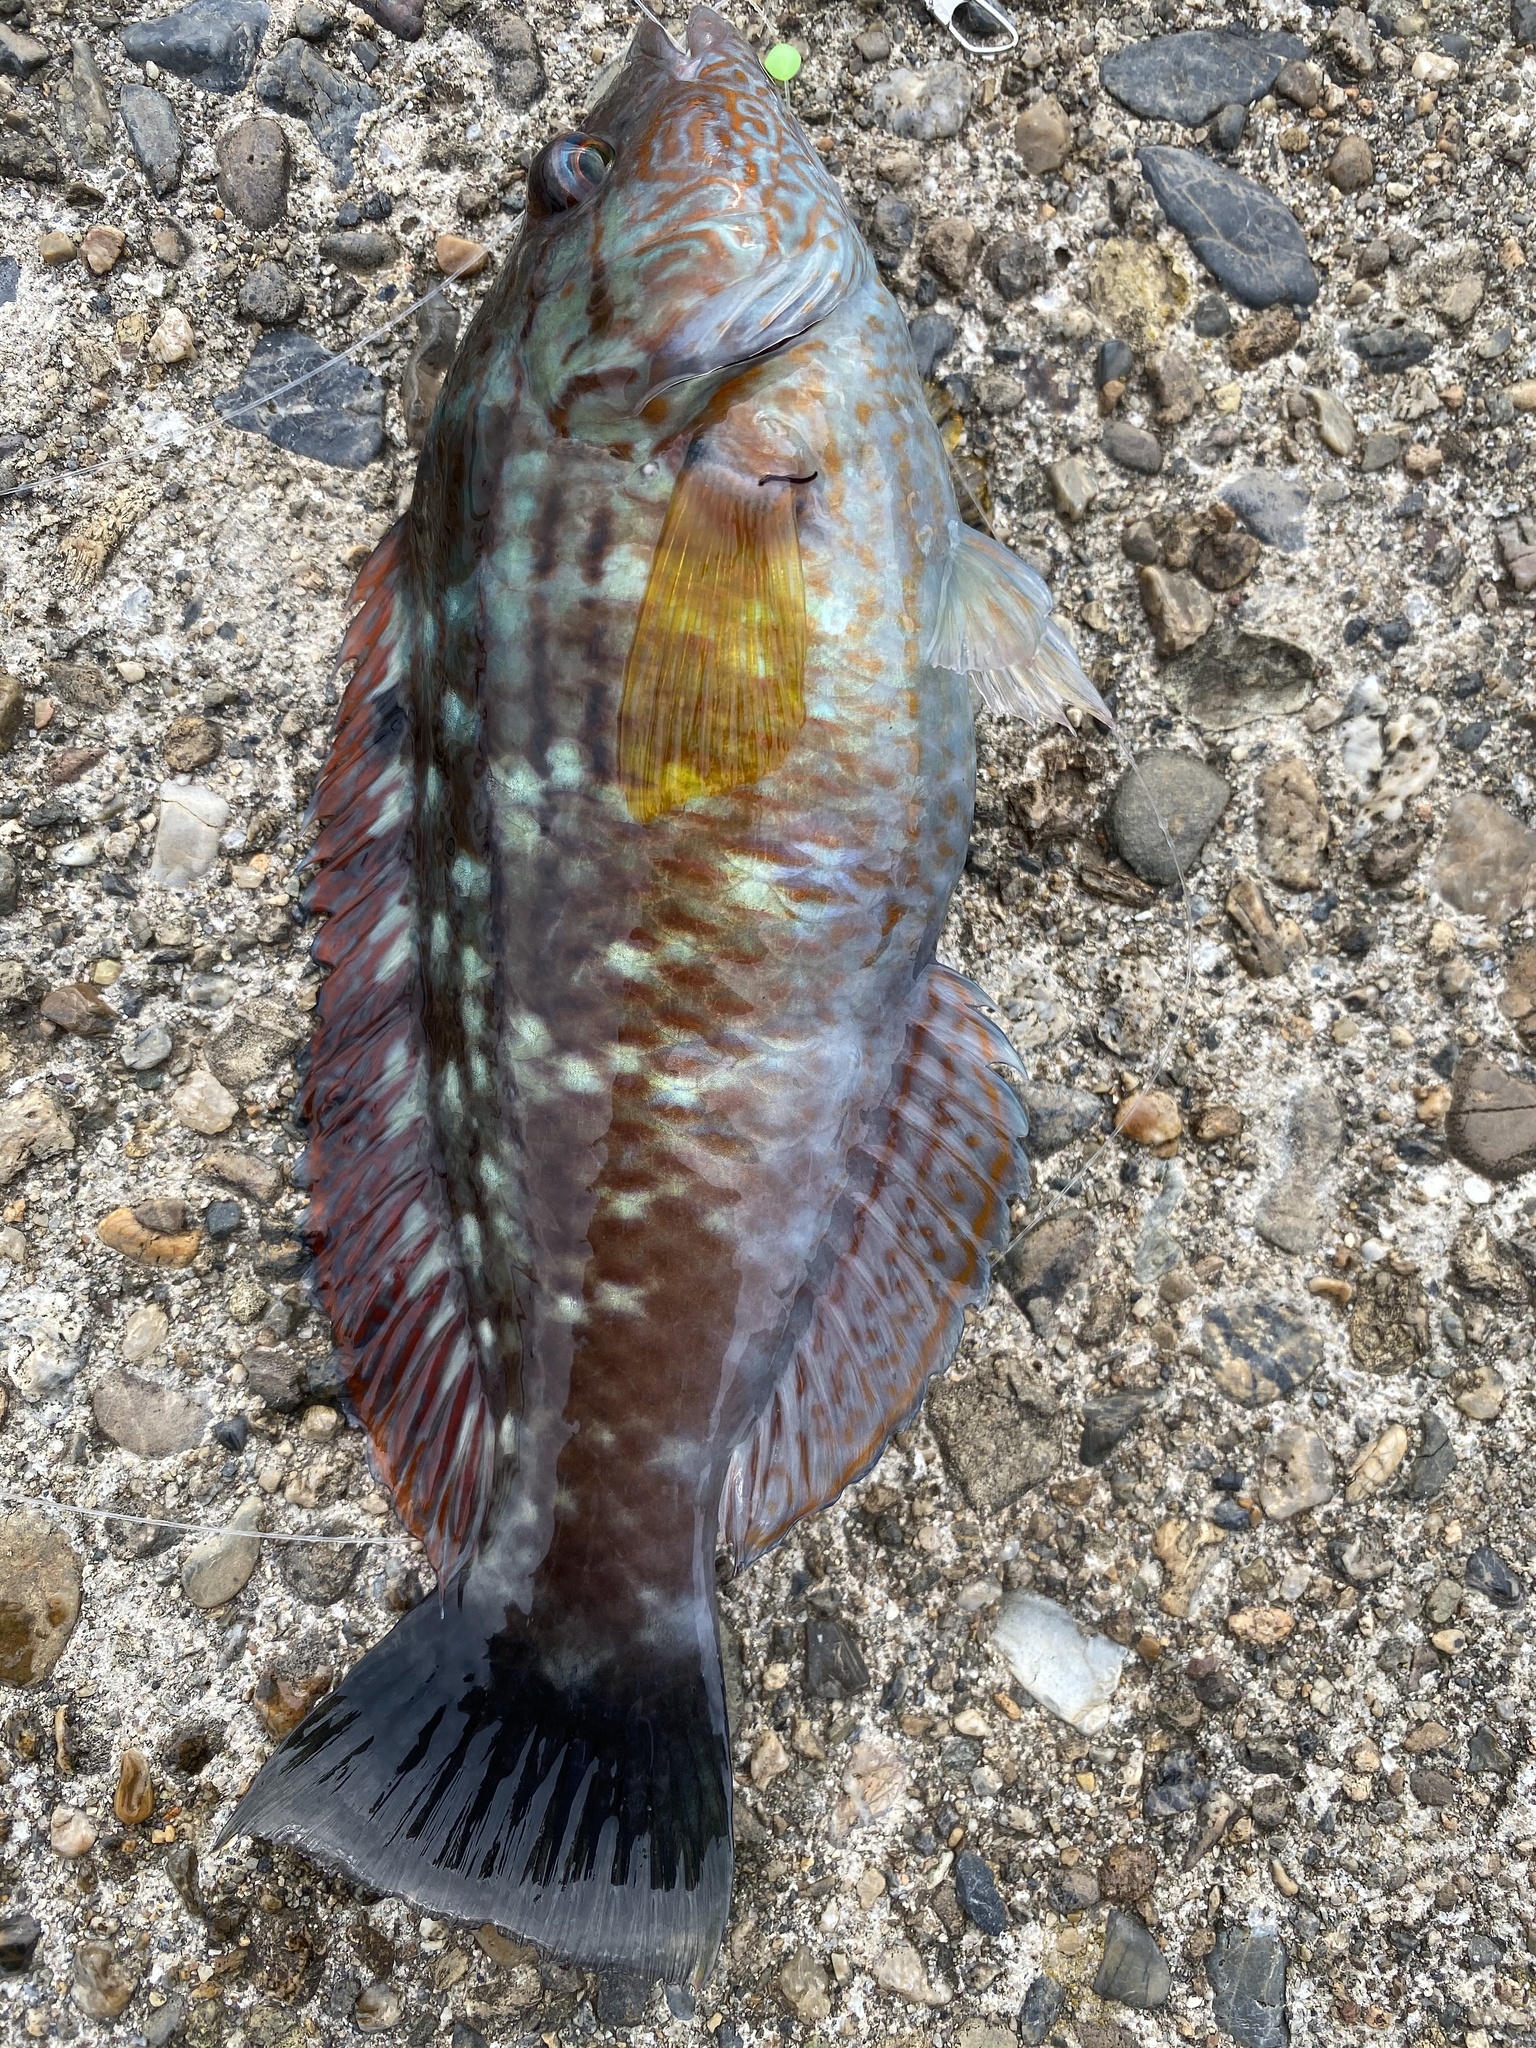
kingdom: Animalia
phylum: Chordata
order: Perciformes
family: Labridae
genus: Pseudolabrus
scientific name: Pseudolabrus sieboldi
